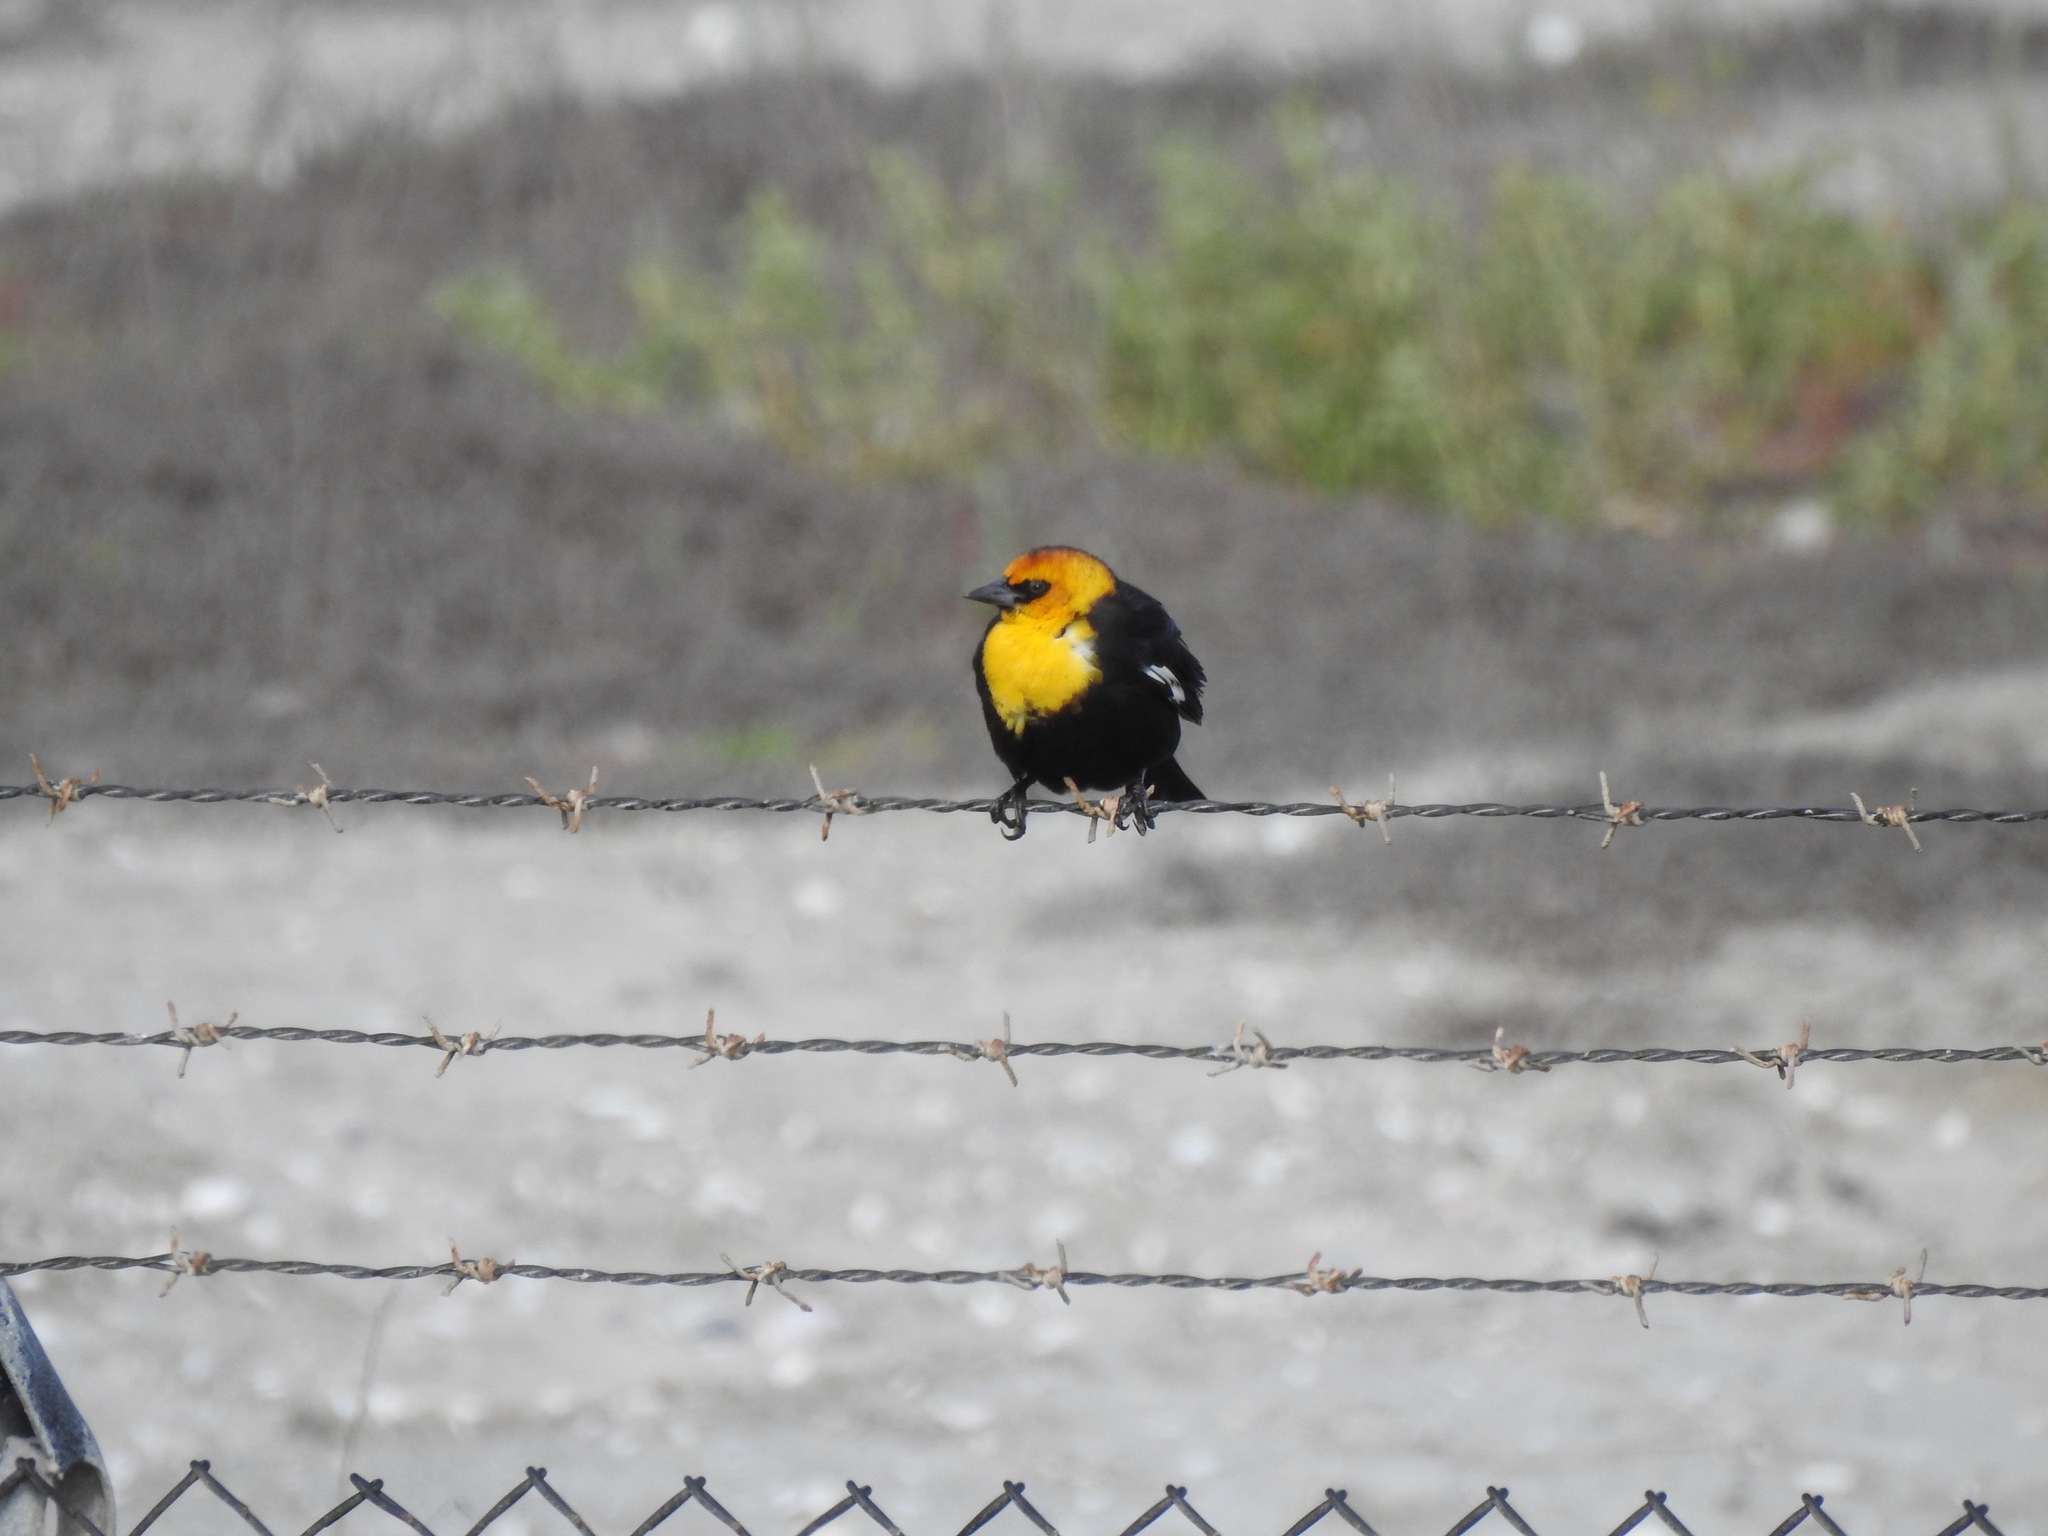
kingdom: Animalia
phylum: Chordata
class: Aves
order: Passeriformes
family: Icteridae
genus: Xanthocephalus
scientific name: Xanthocephalus xanthocephalus
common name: Yellow-headed blackbird
